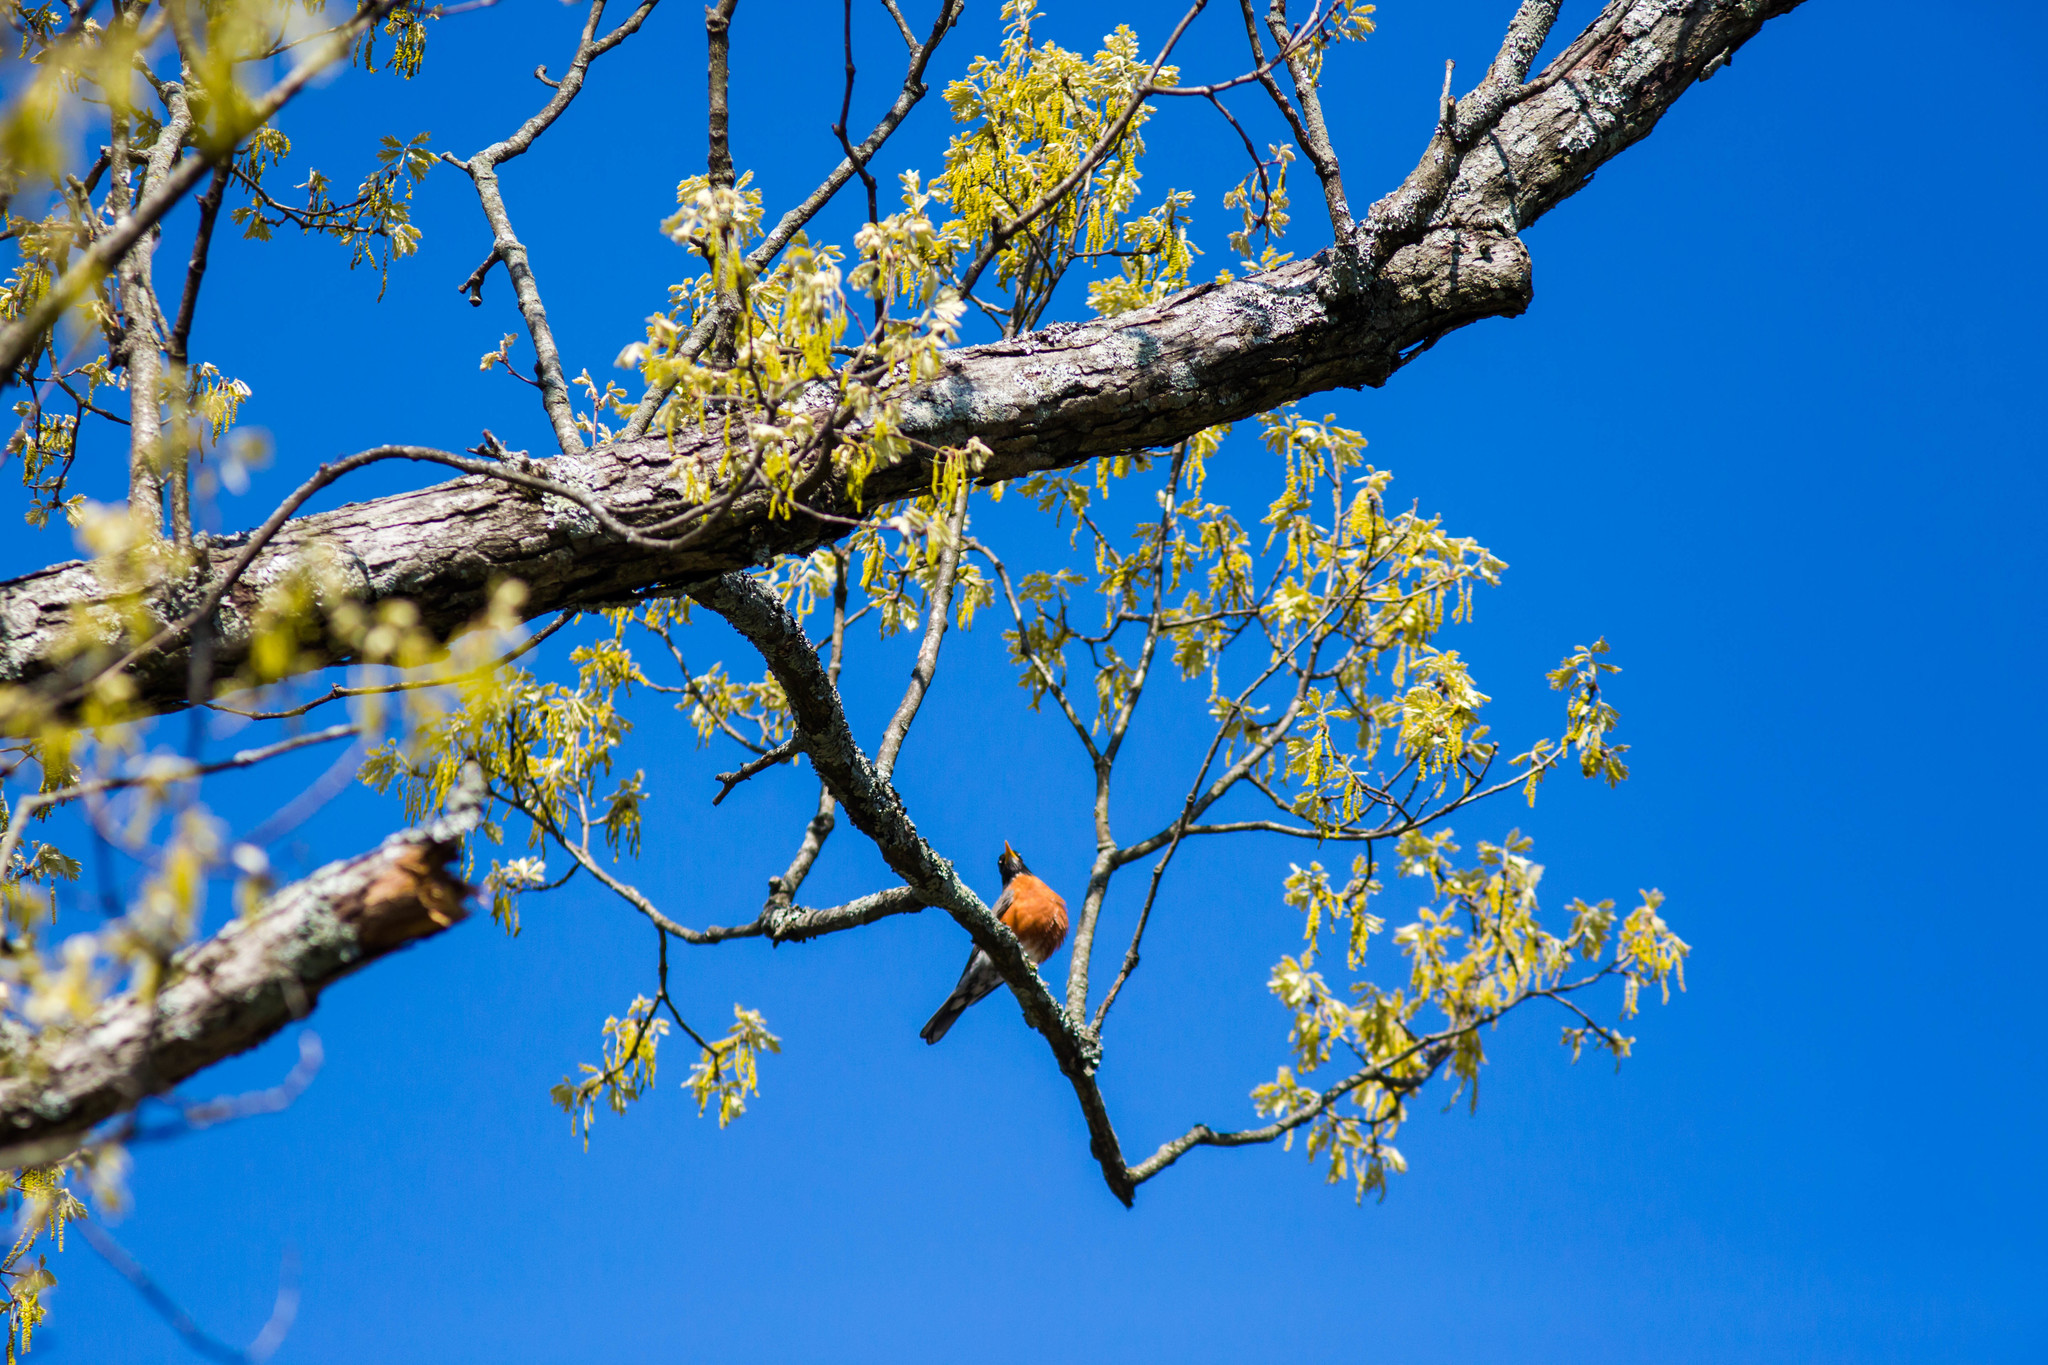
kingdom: Animalia
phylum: Chordata
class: Aves
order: Passeriformes
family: Turdidae
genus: Turdus
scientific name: Turdus migratorius
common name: American robin
